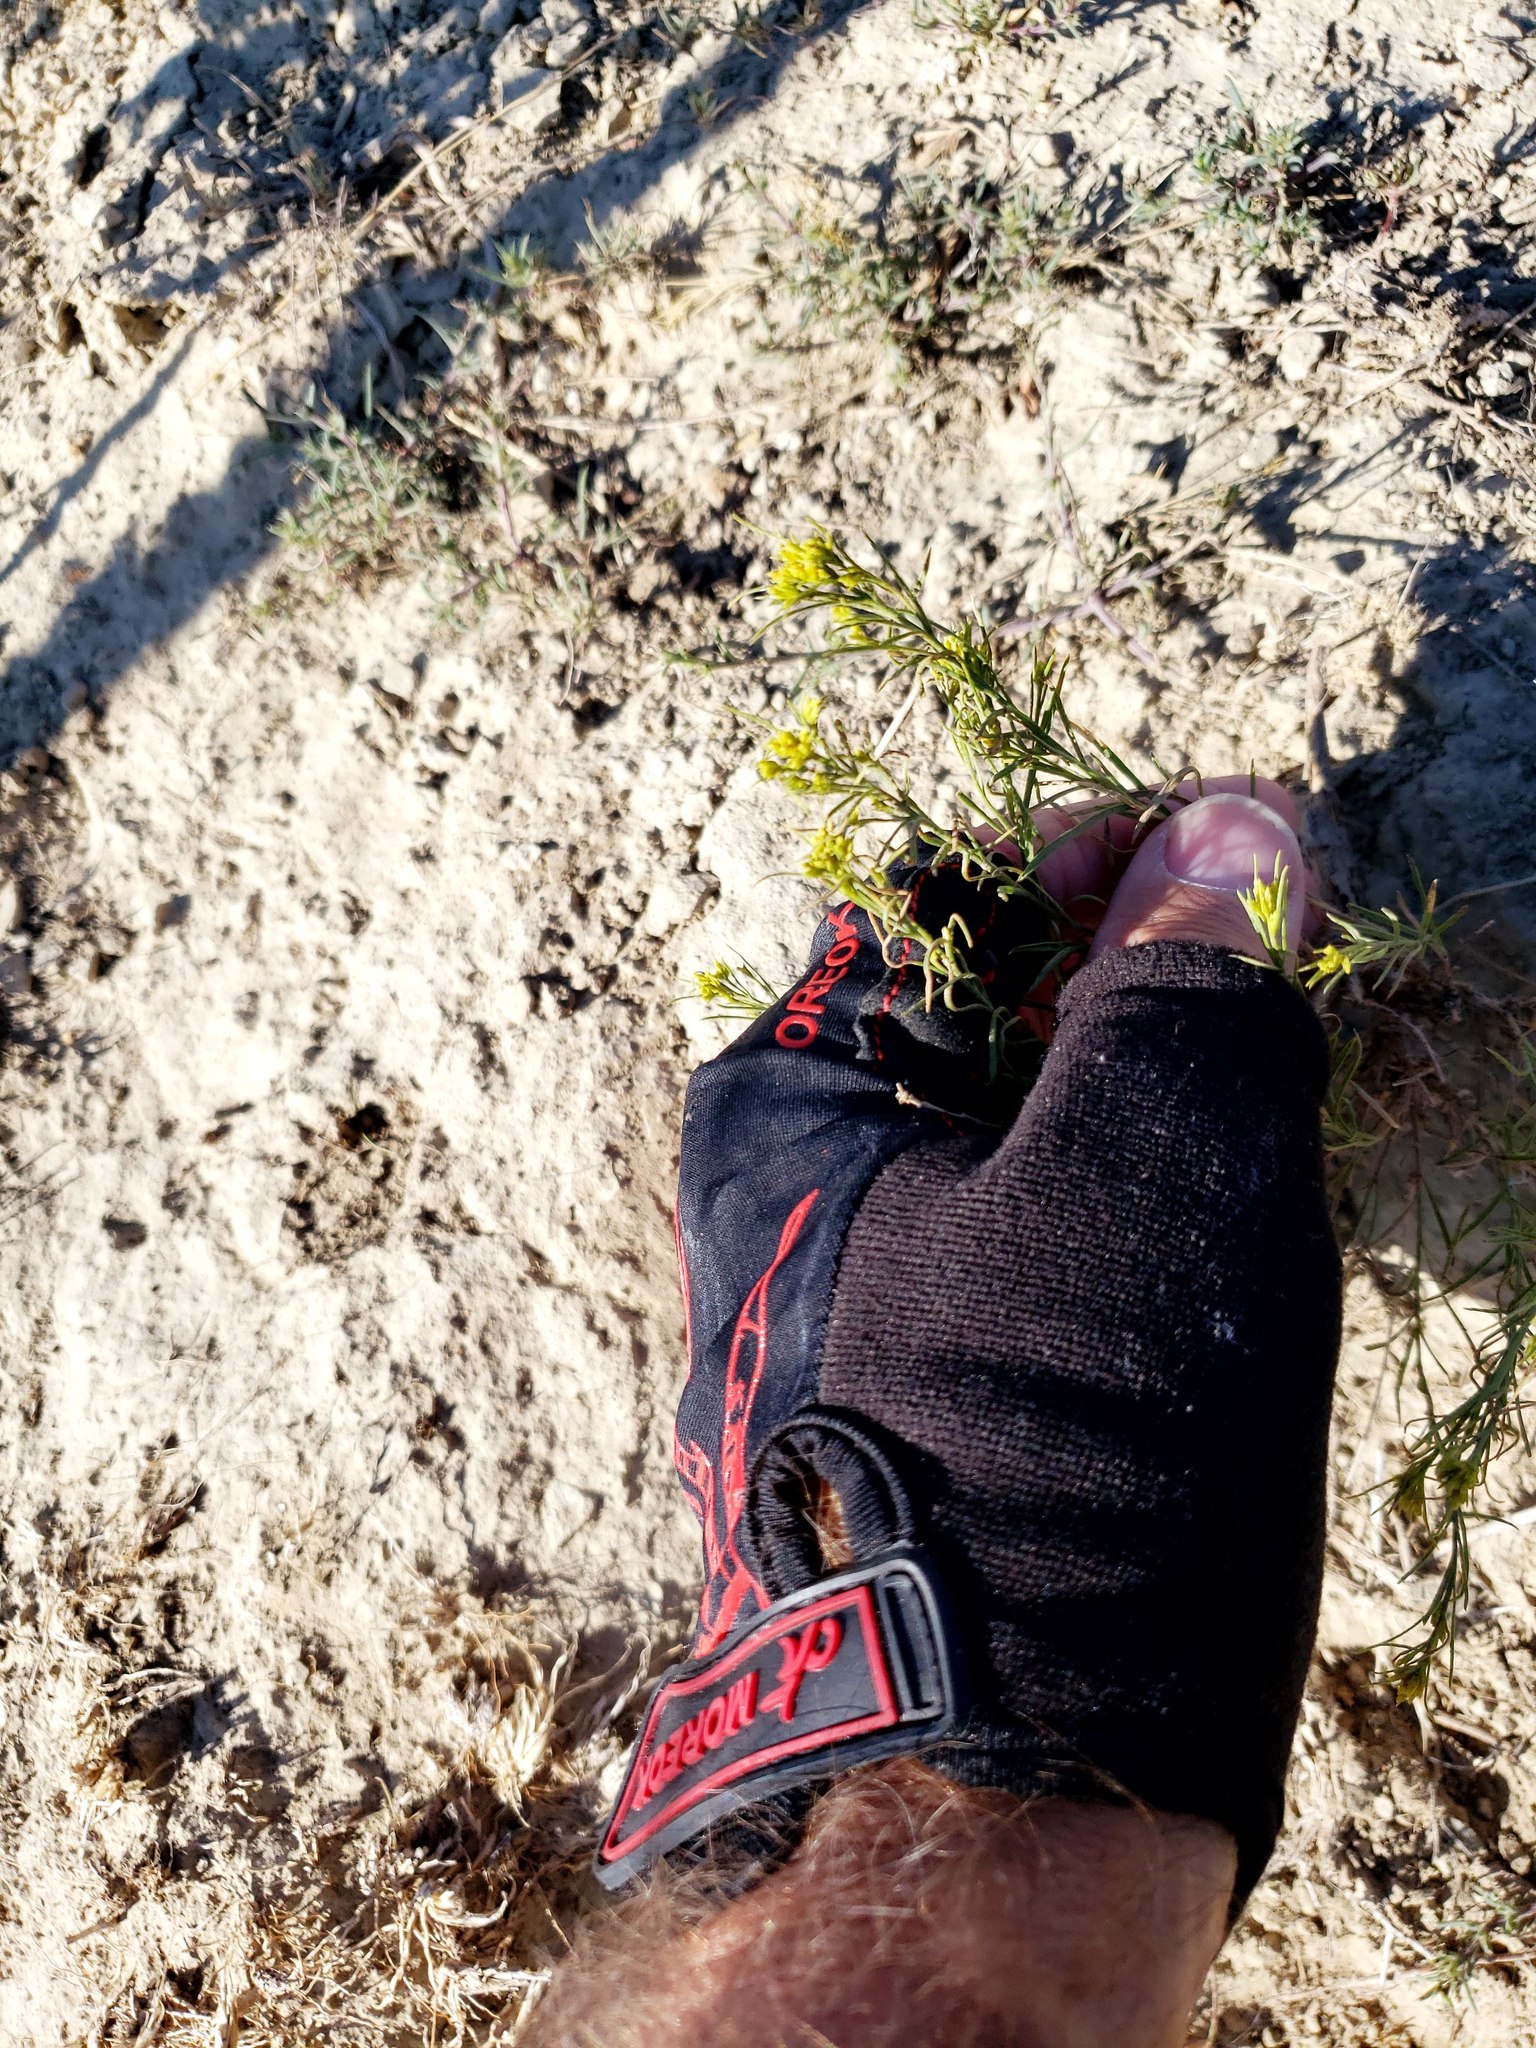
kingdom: Plantae
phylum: Tracheophyta
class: Magnoliopsida
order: Asterales
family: Asteraceae
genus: Gutierrezia
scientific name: Gutierrezia sarothrae
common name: Broom snakeweed
